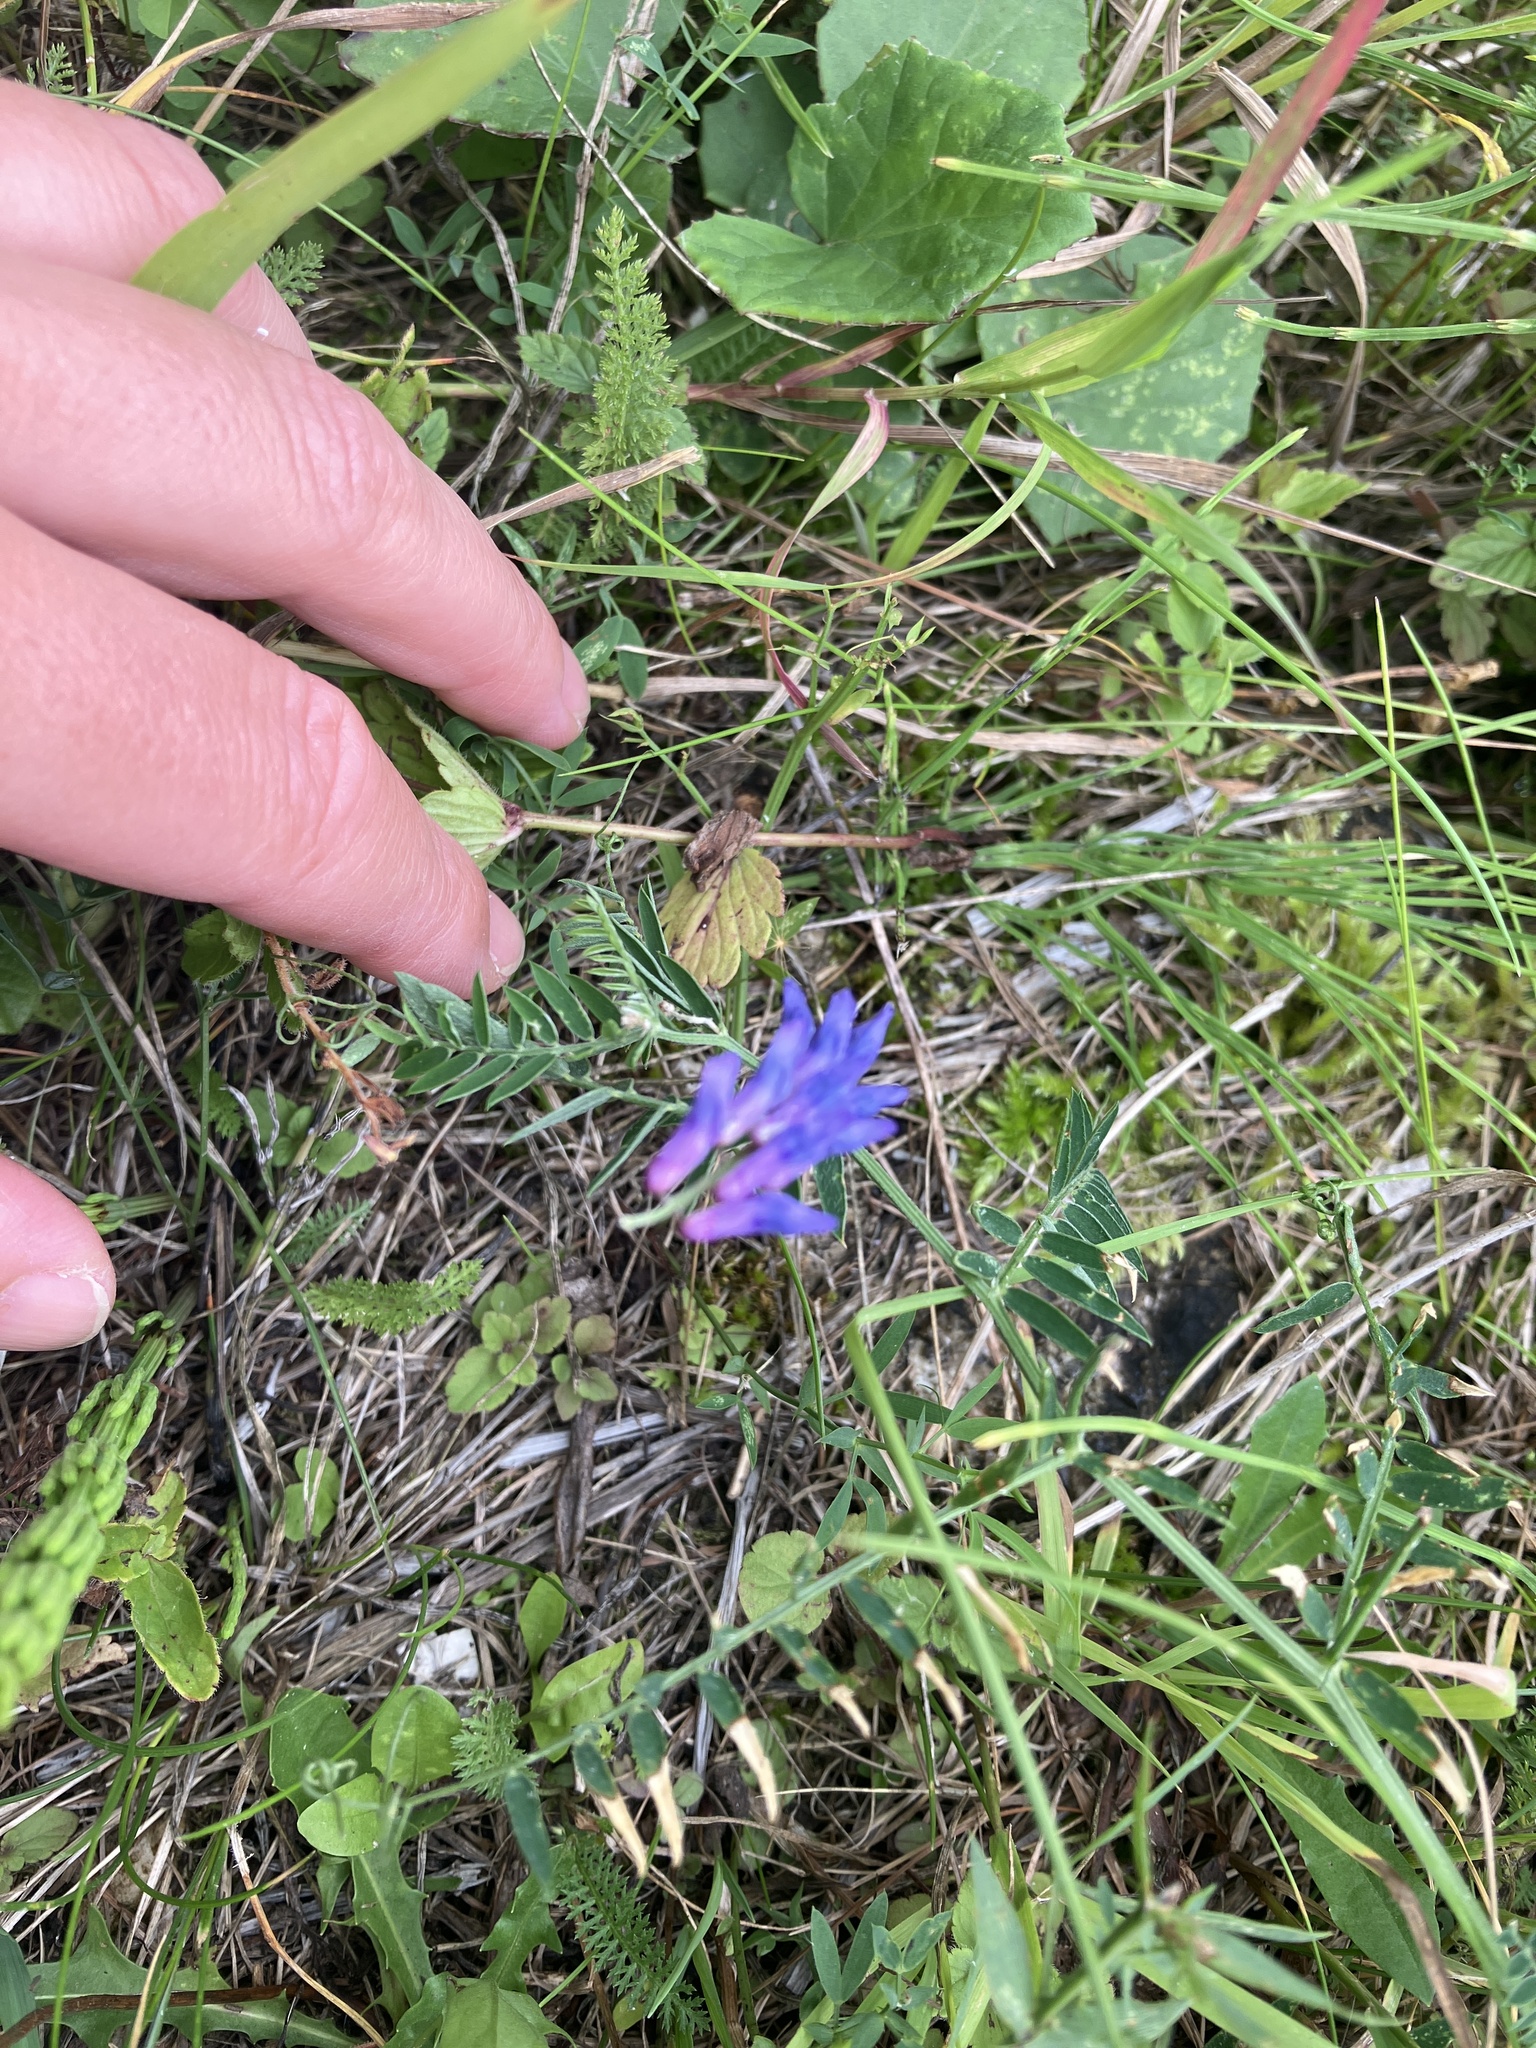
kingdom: Plantae
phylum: Tracheophyta
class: Magnoliopsida
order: Fabales
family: Fabaceae
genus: Vicia
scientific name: Vicia cracca
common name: Bird vetch
